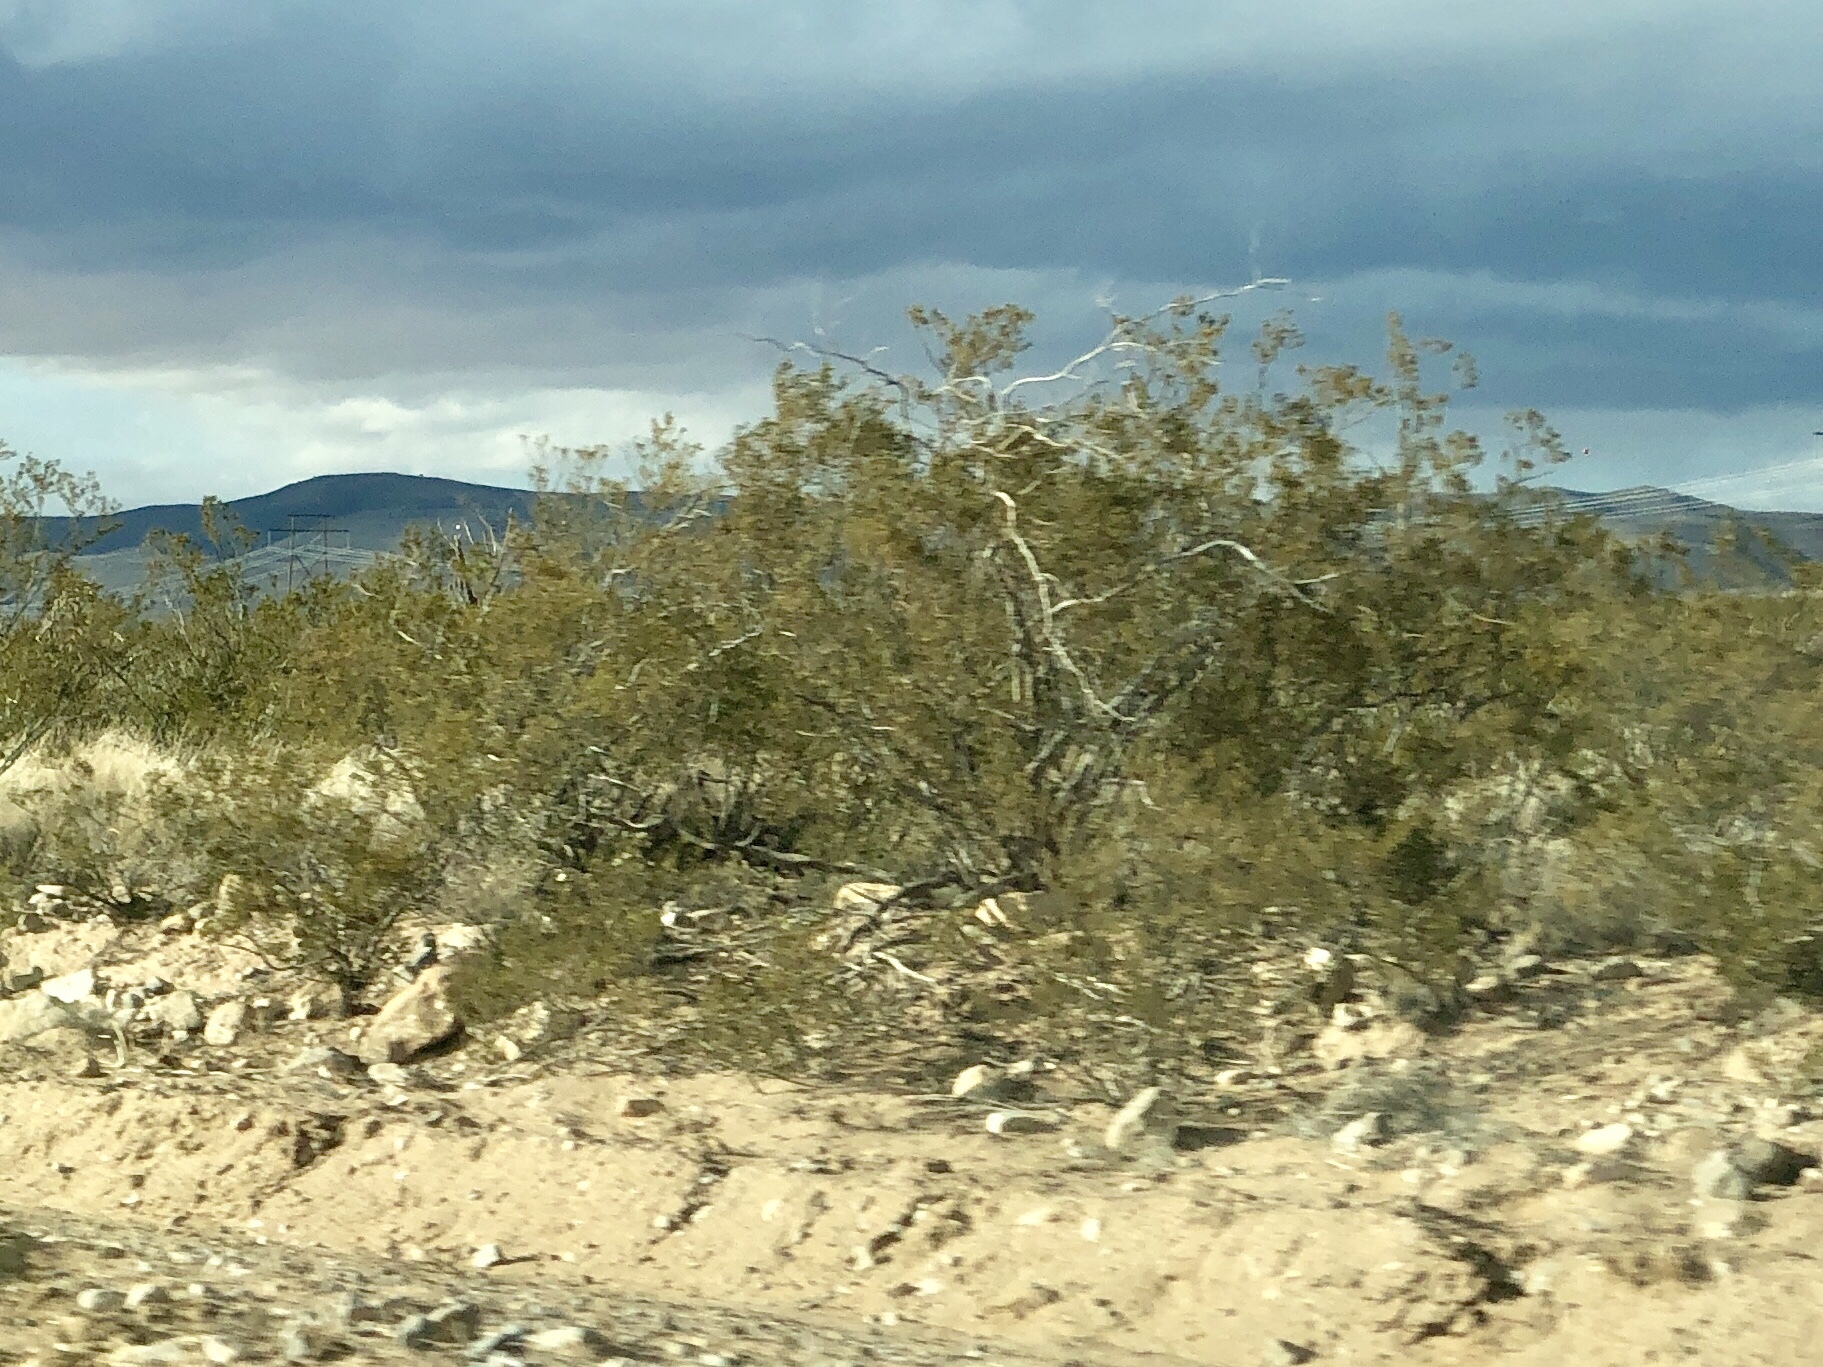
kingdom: Plantae
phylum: Tracheophyta
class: Magnoliopsida
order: Zygophyllales
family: Zygophyllaceae
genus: Larrea
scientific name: Larrea tridentata
